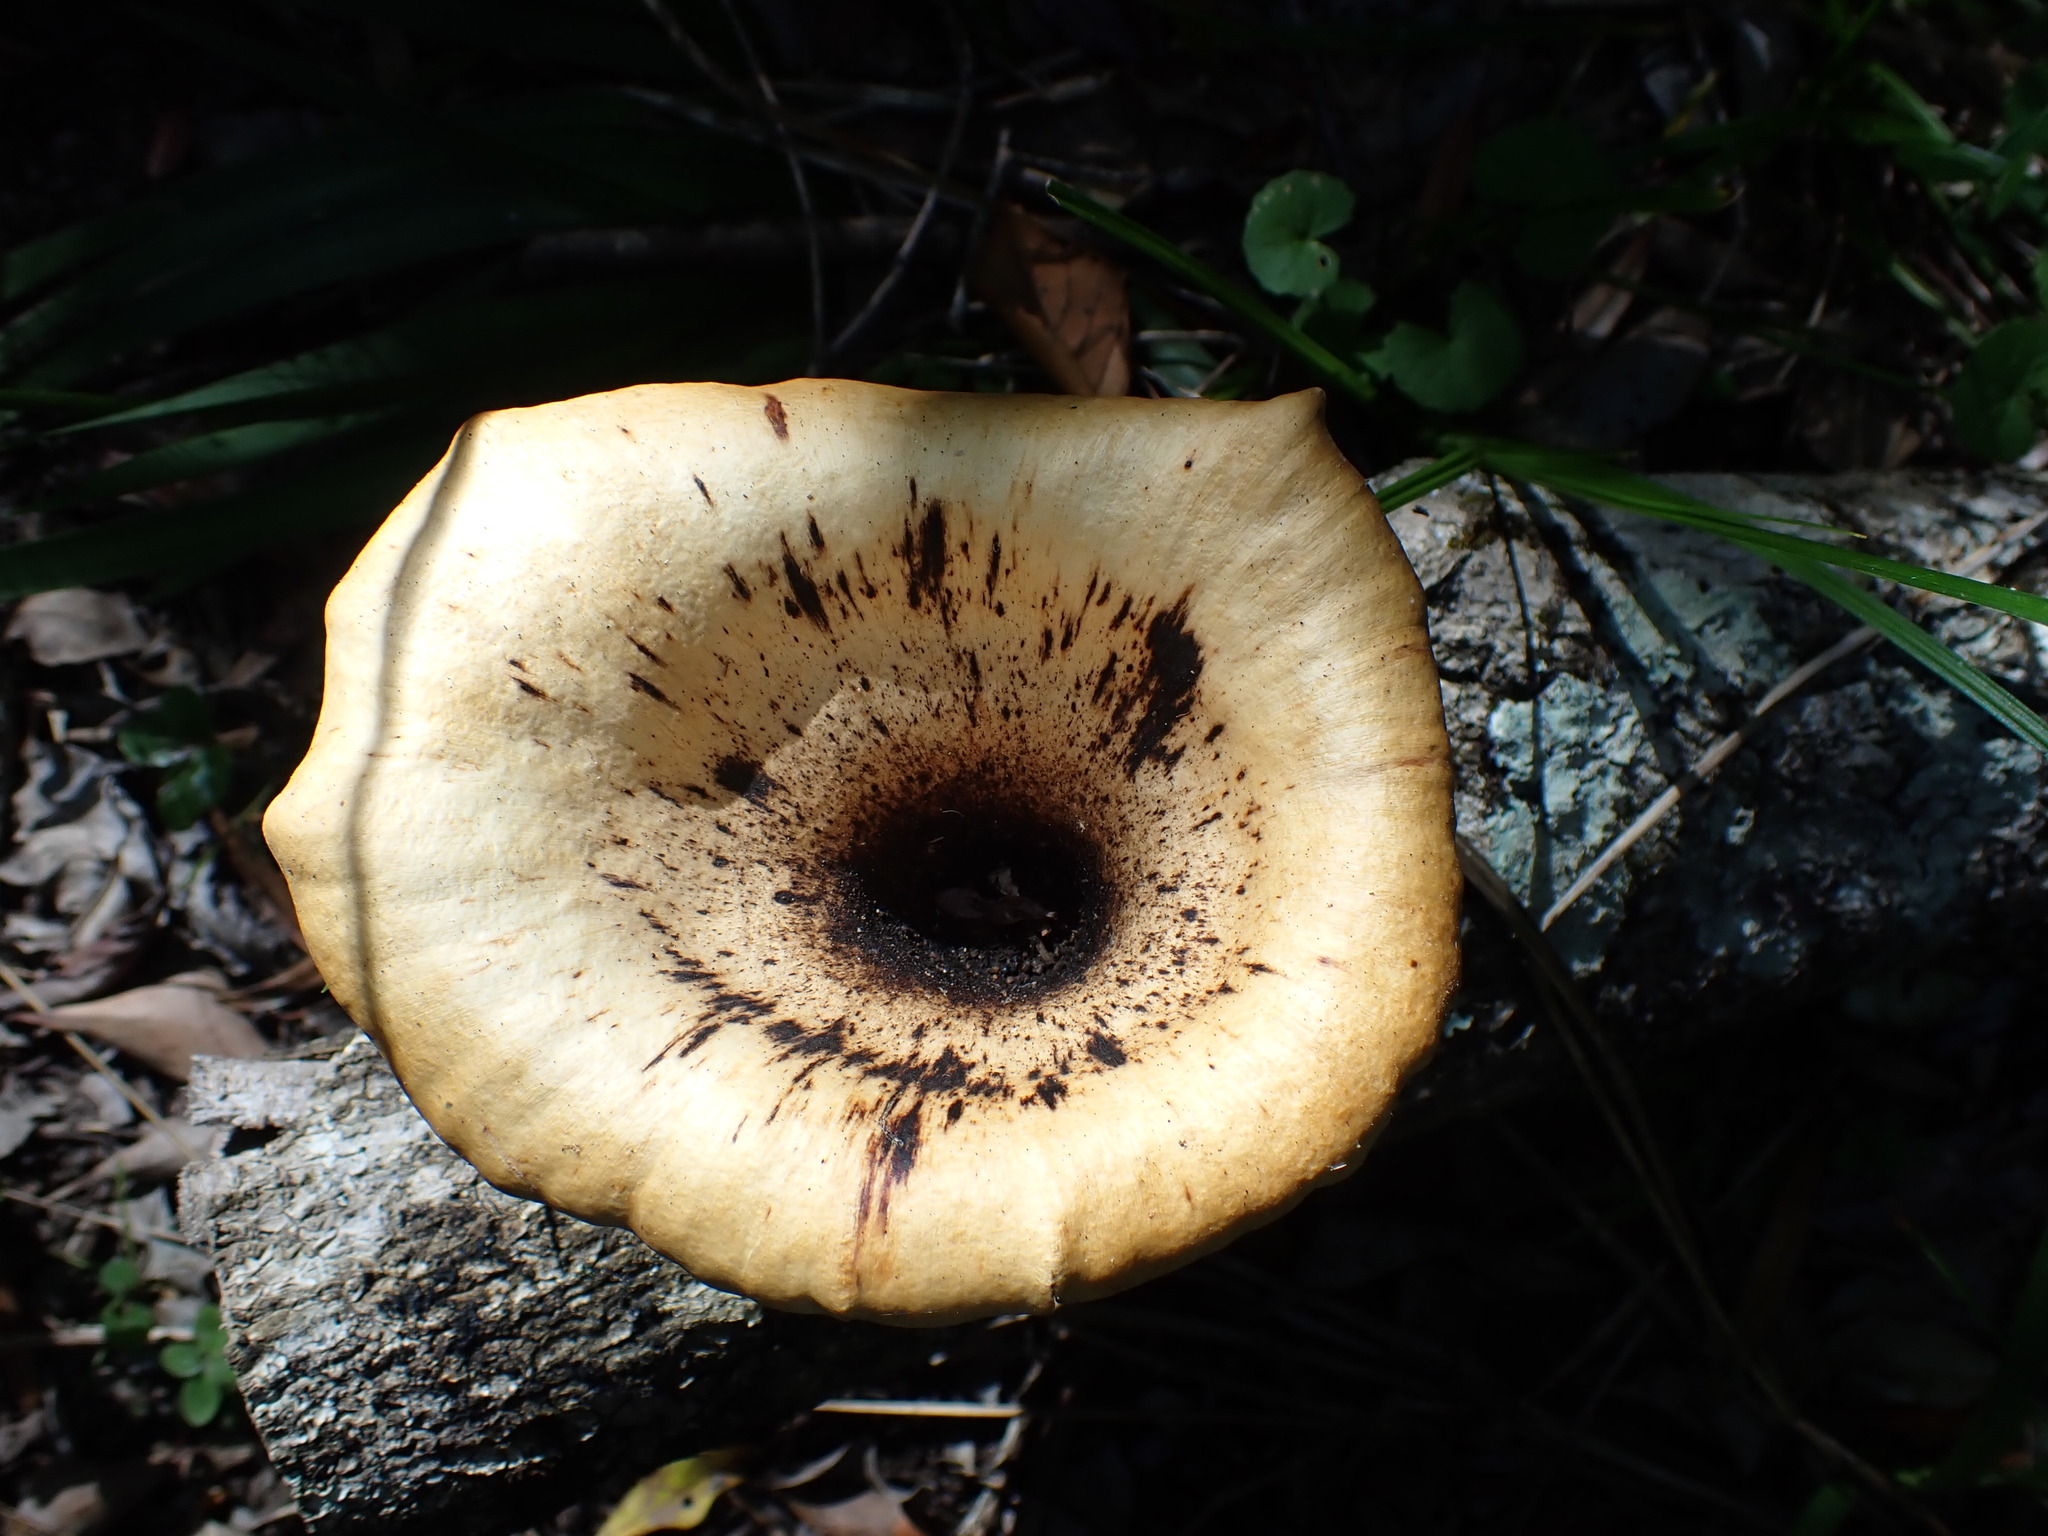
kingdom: Fungi
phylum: Basidiomycota
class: Agaricomycetes
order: Polyporales
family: Polyporaceae
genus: Lentinus
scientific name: Lentinus sajor-caju
